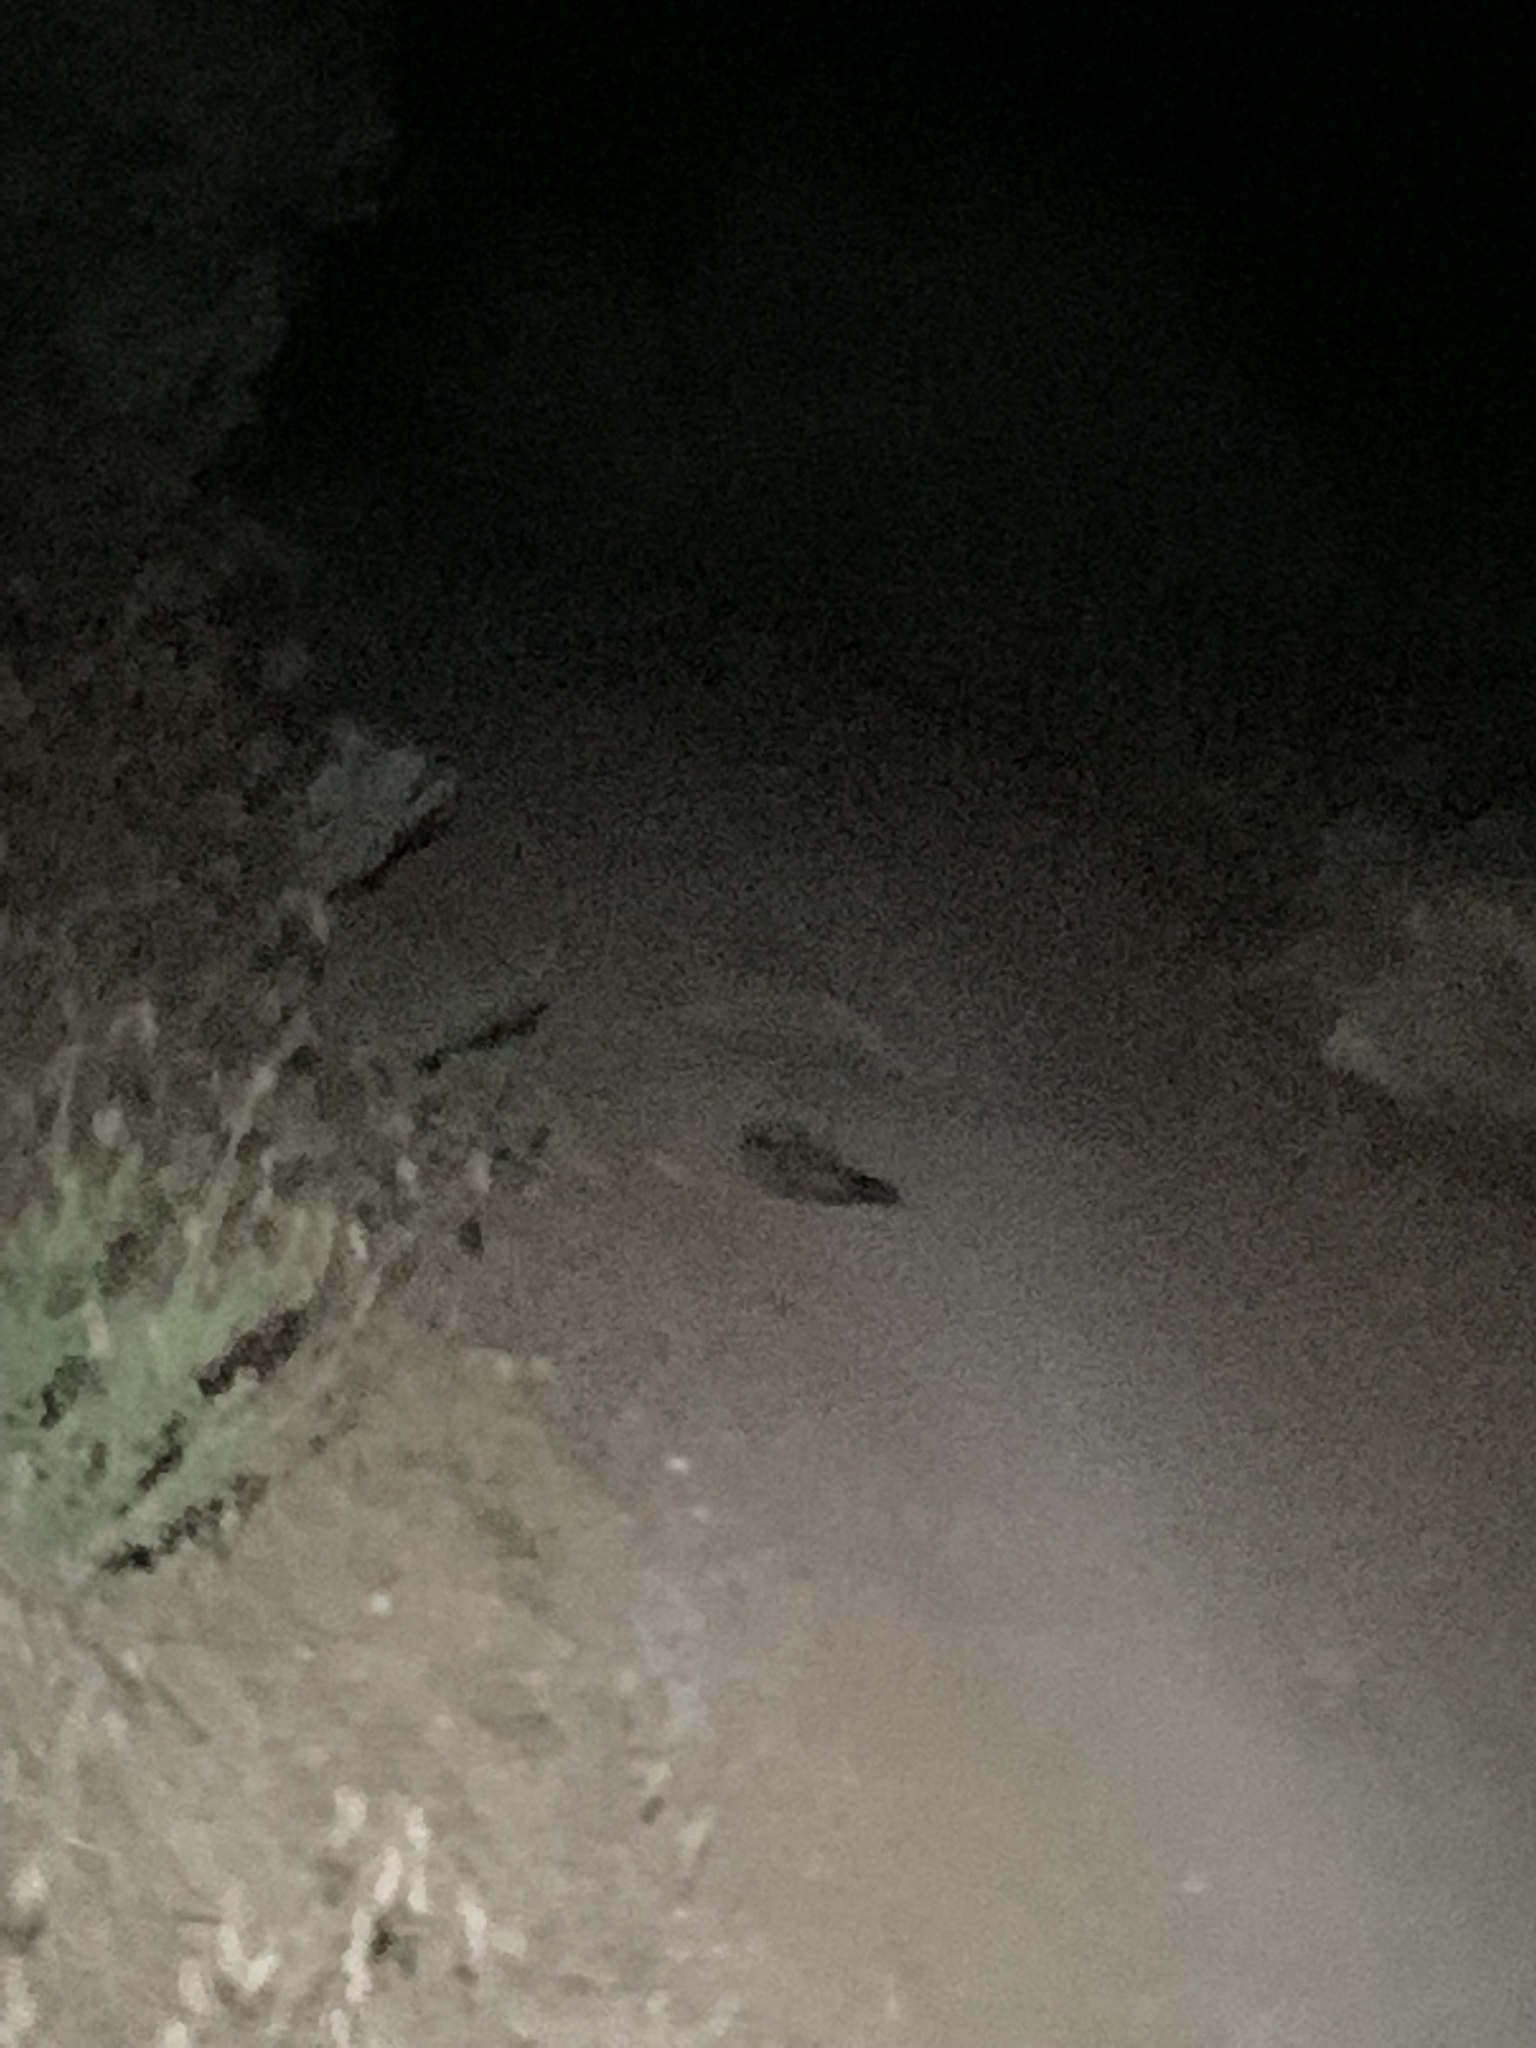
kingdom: Animalia
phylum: Chordata
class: Aves
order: Caprimulgiformes
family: Caprimulgidae
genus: Phalaenoptilus
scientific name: Phalaenoptilus nuttallii
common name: Common poorwill
